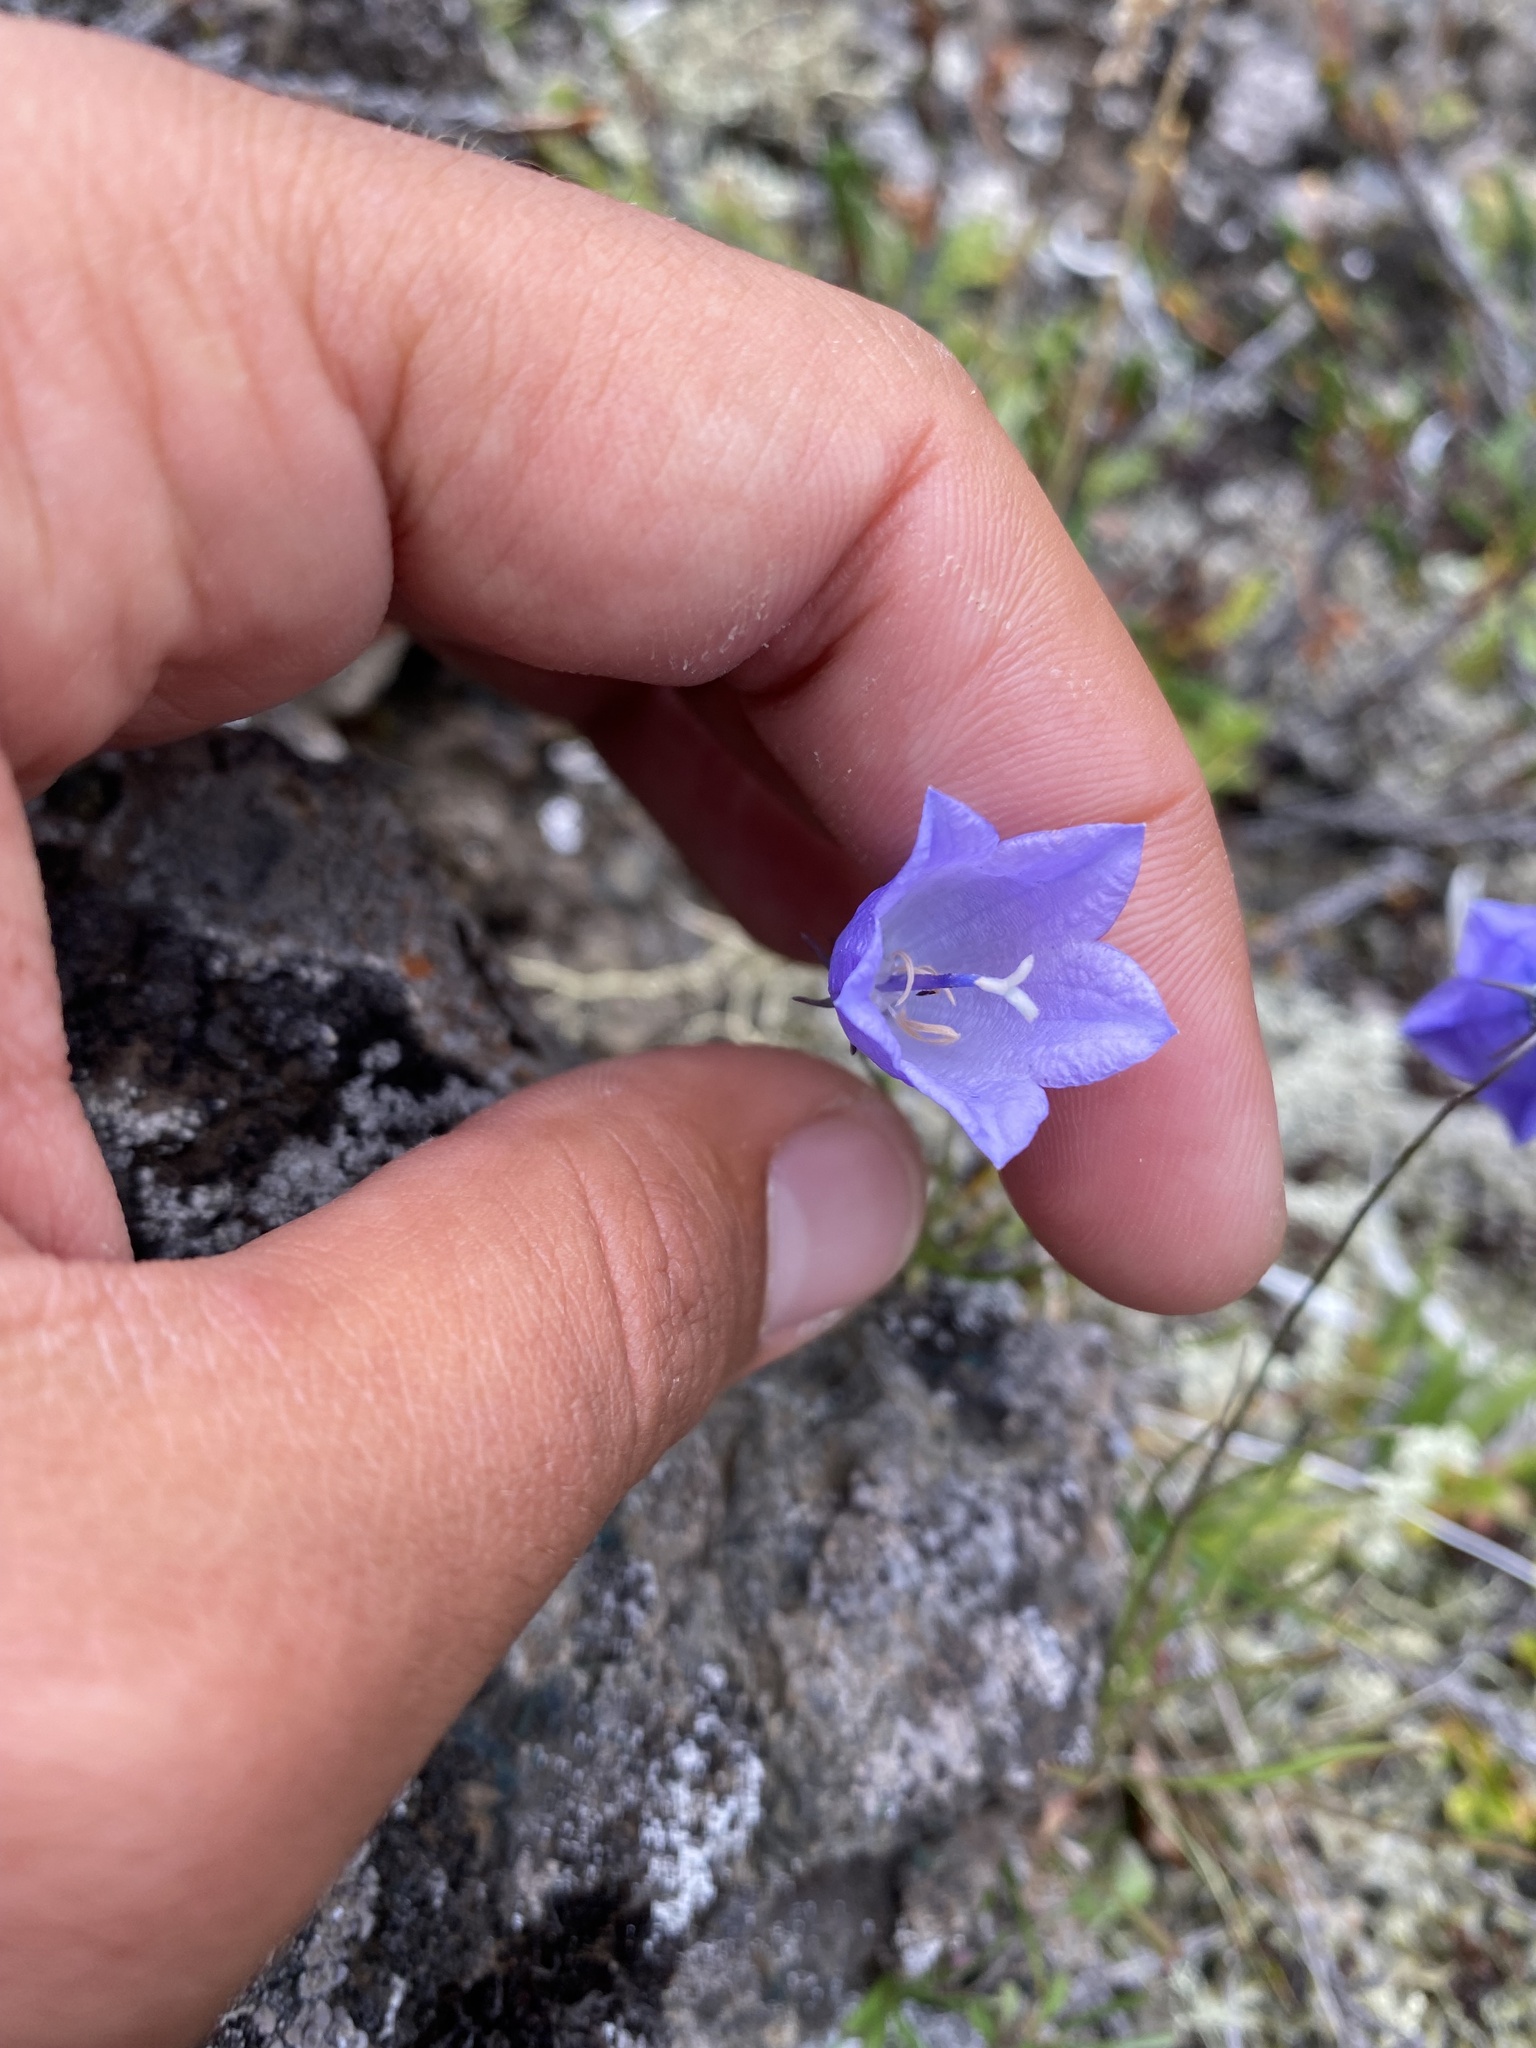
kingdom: Plantae
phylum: Tracheophyta
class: Magnoliopsida
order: Asterales
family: Campanulaceae
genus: Campanula
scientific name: Campanula rotundifolia
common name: Harebell
